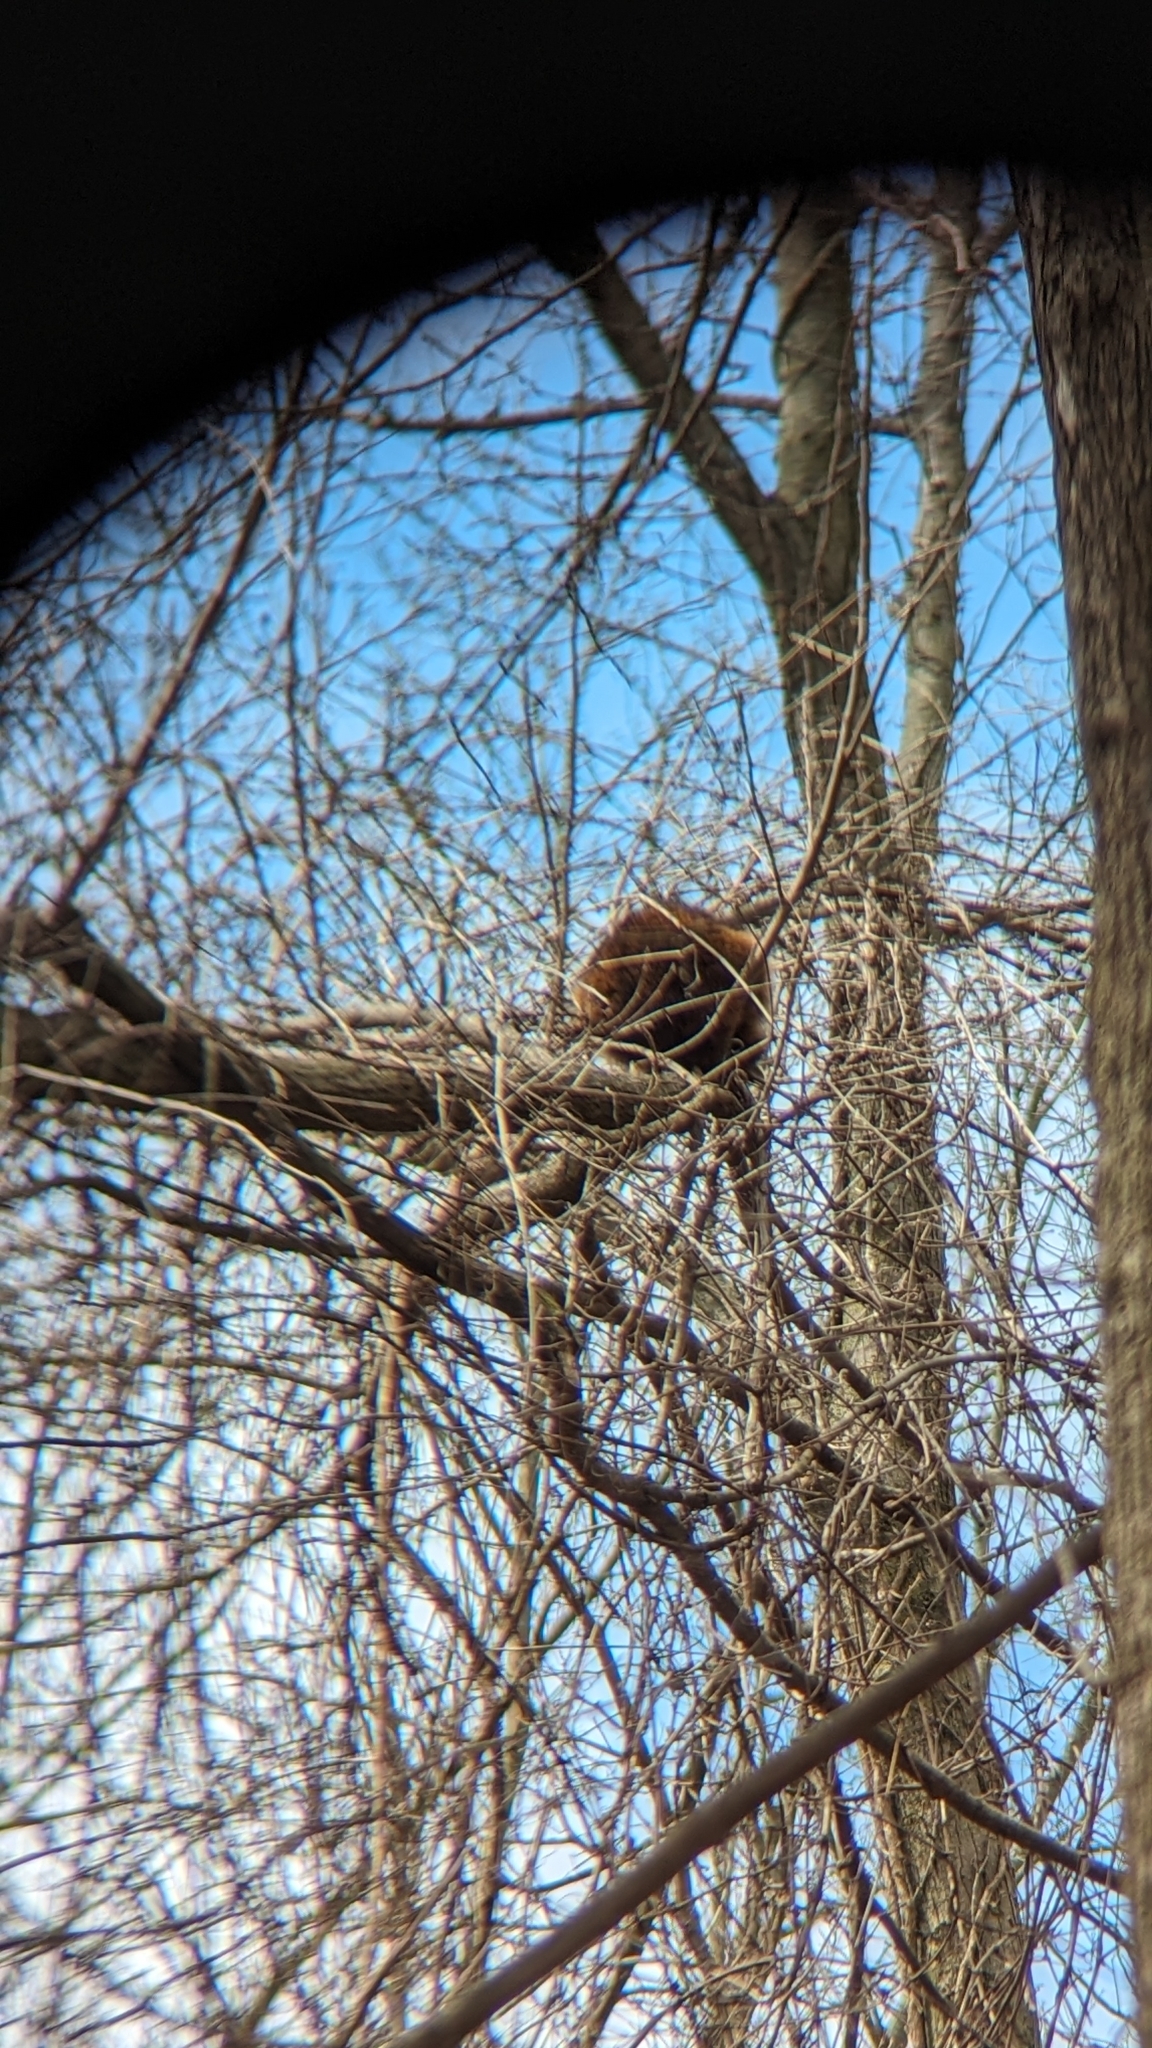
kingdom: Animalia
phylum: Chordata
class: Mammalia
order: Carnivora
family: Procyonidae
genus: Procyon
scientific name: Procyon lotor
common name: Raccoon
